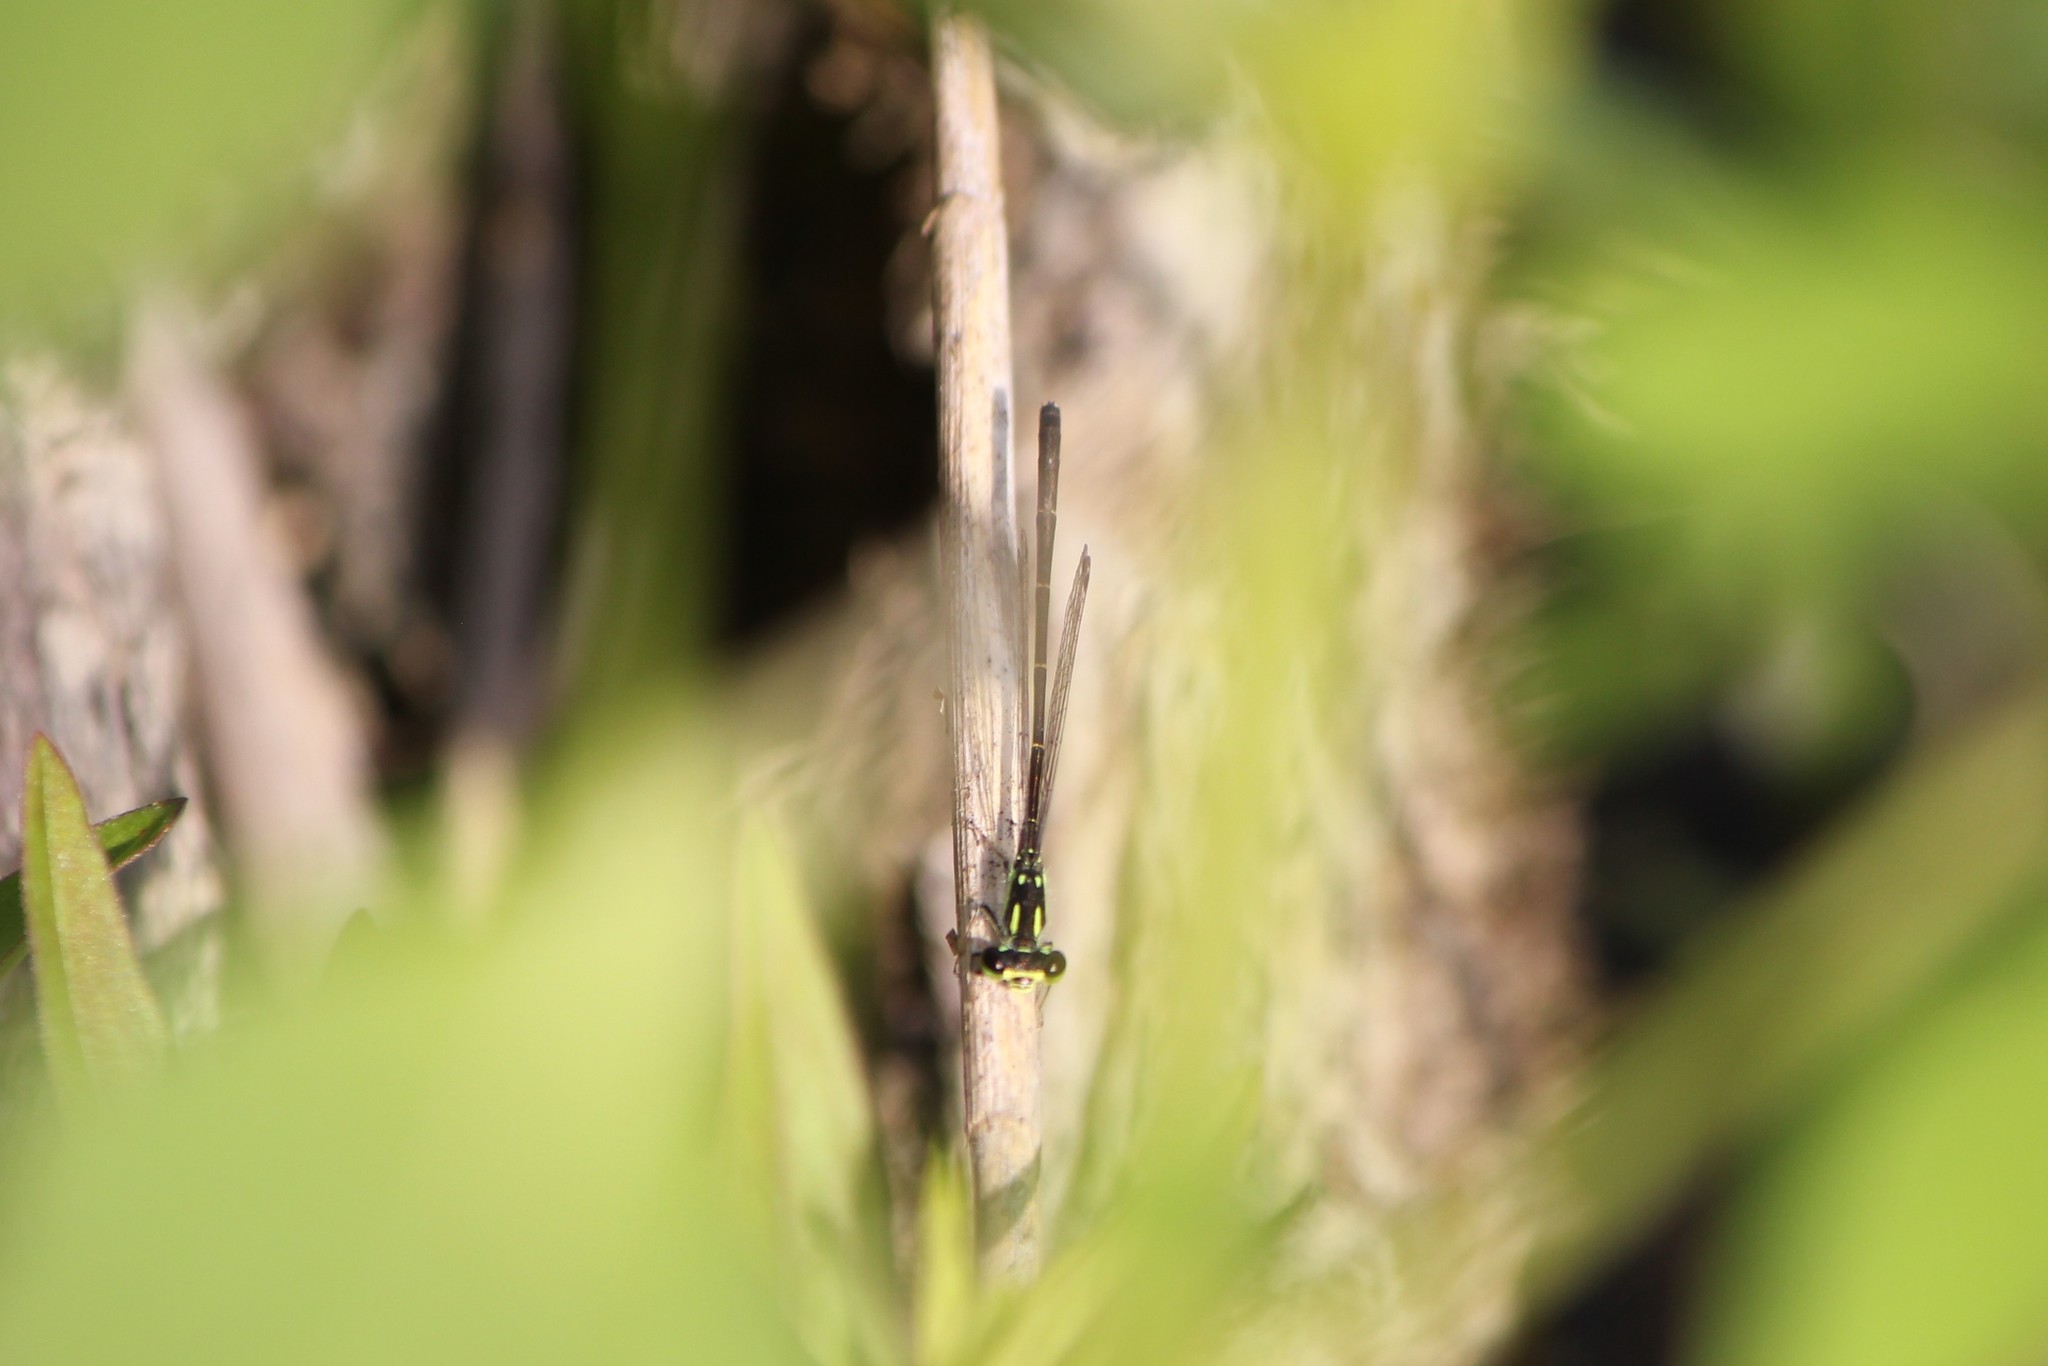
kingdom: Animalia
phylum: Arthropoda
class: Insecta
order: Odonata
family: Coenagrionidae
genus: Ischnura
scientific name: Ischnura posita
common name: Fragile forktail
